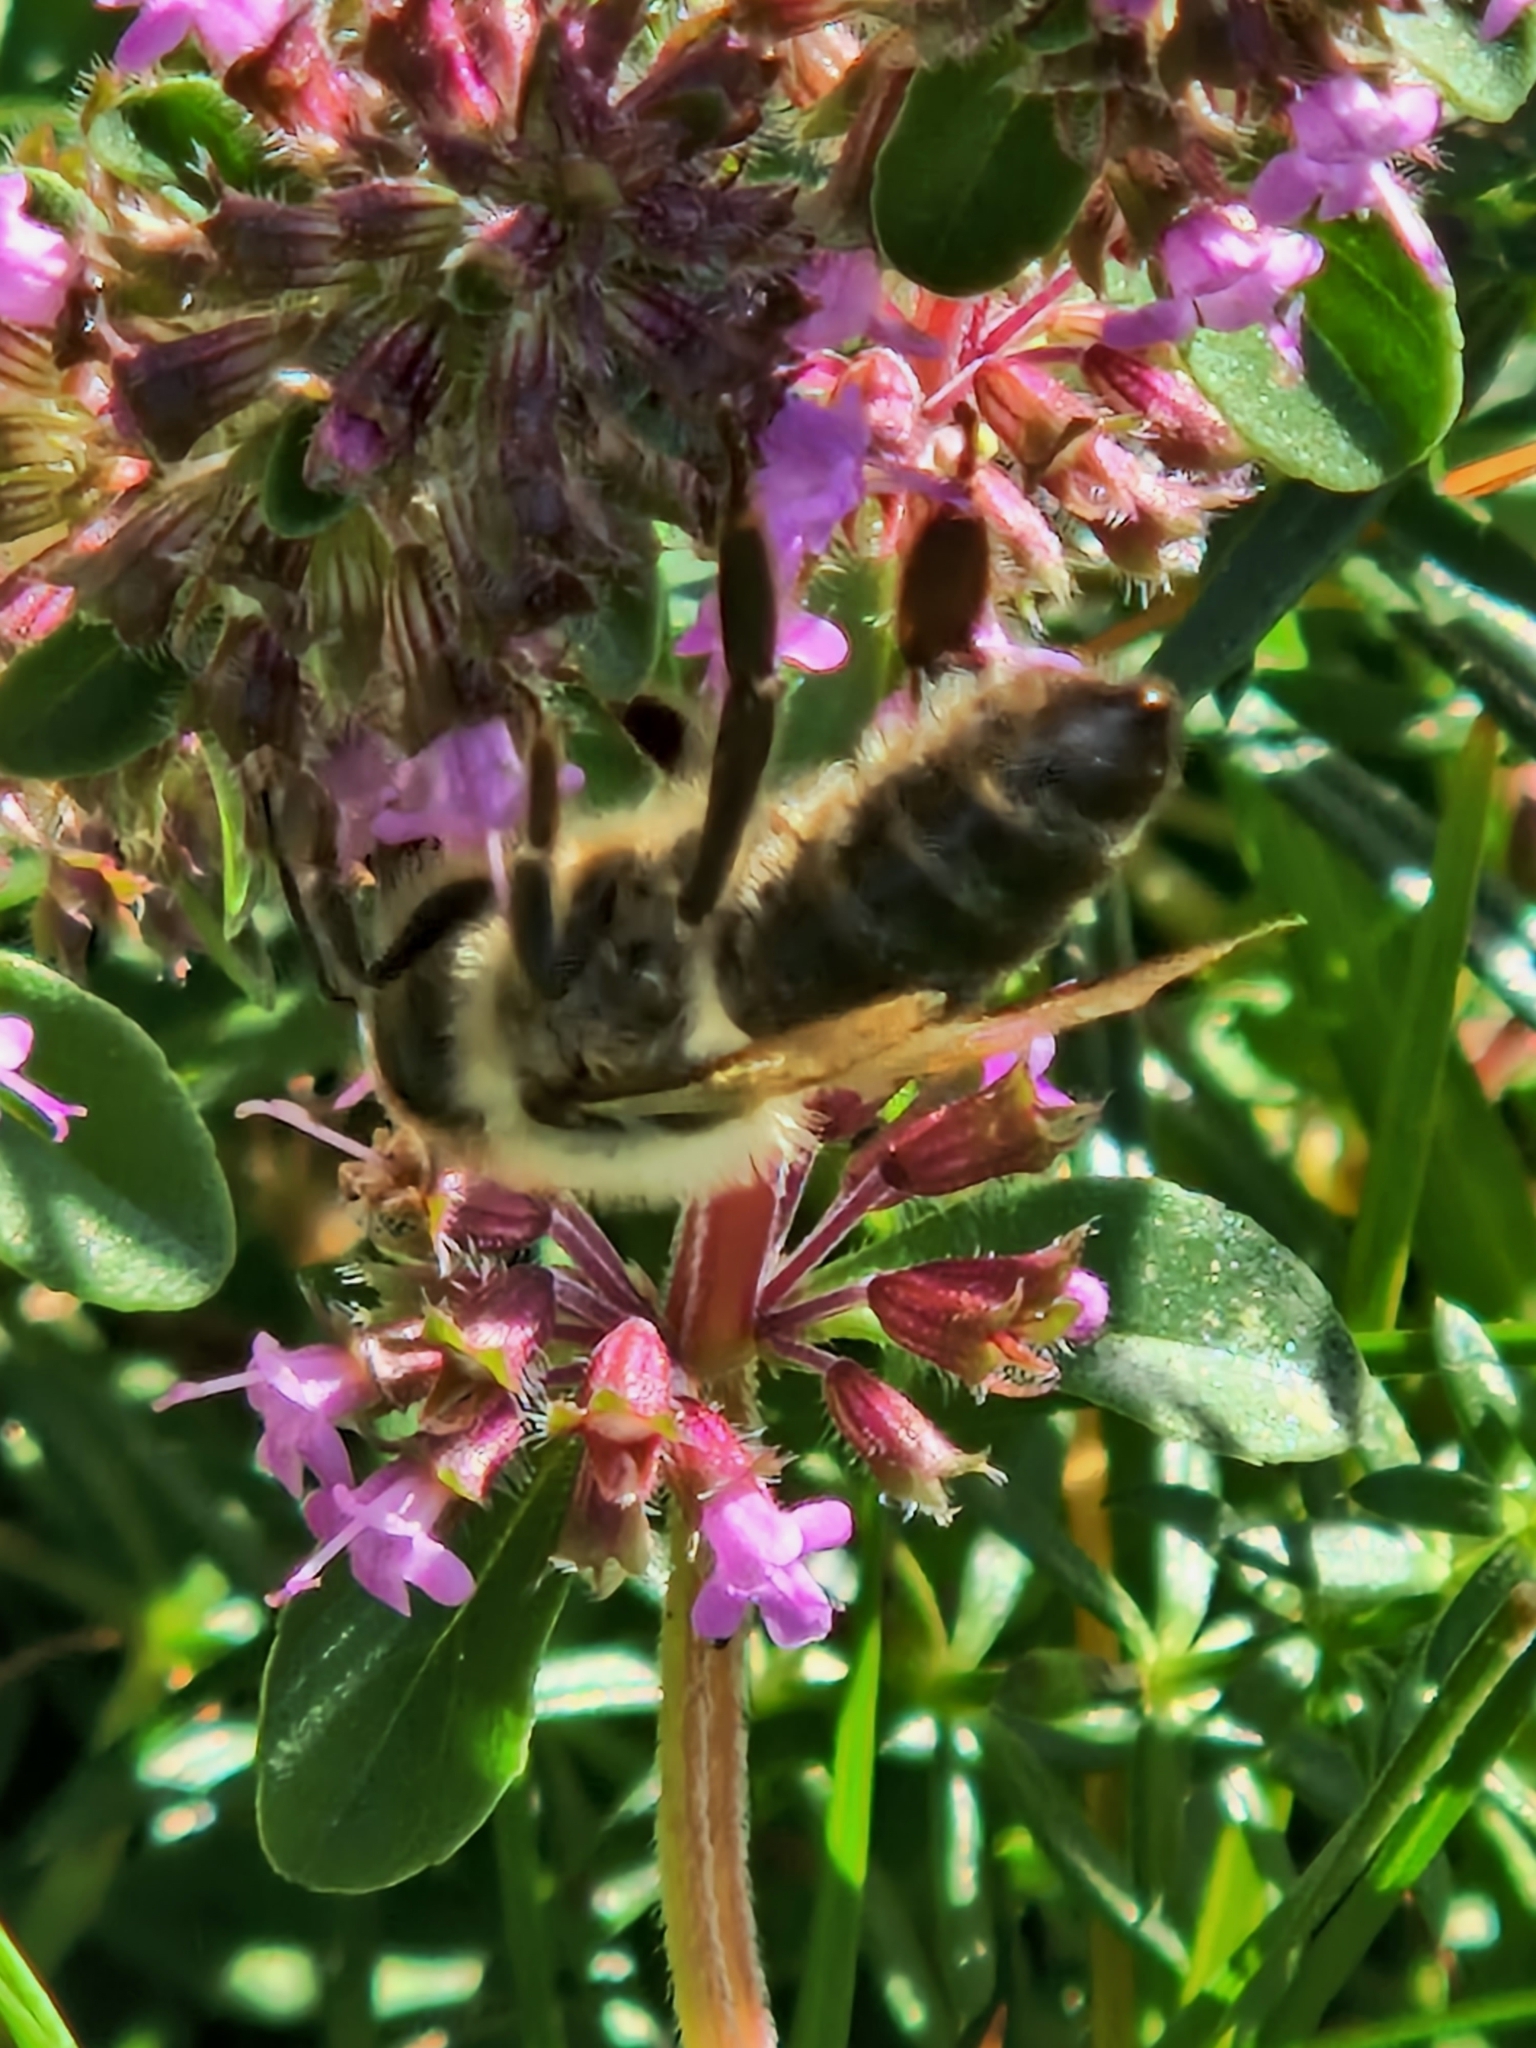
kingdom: Animalia
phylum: Arthropoda
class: Insecta
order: Hymenoptera
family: Apidae
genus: Apis
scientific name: Apis mellifera
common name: Honey bee
